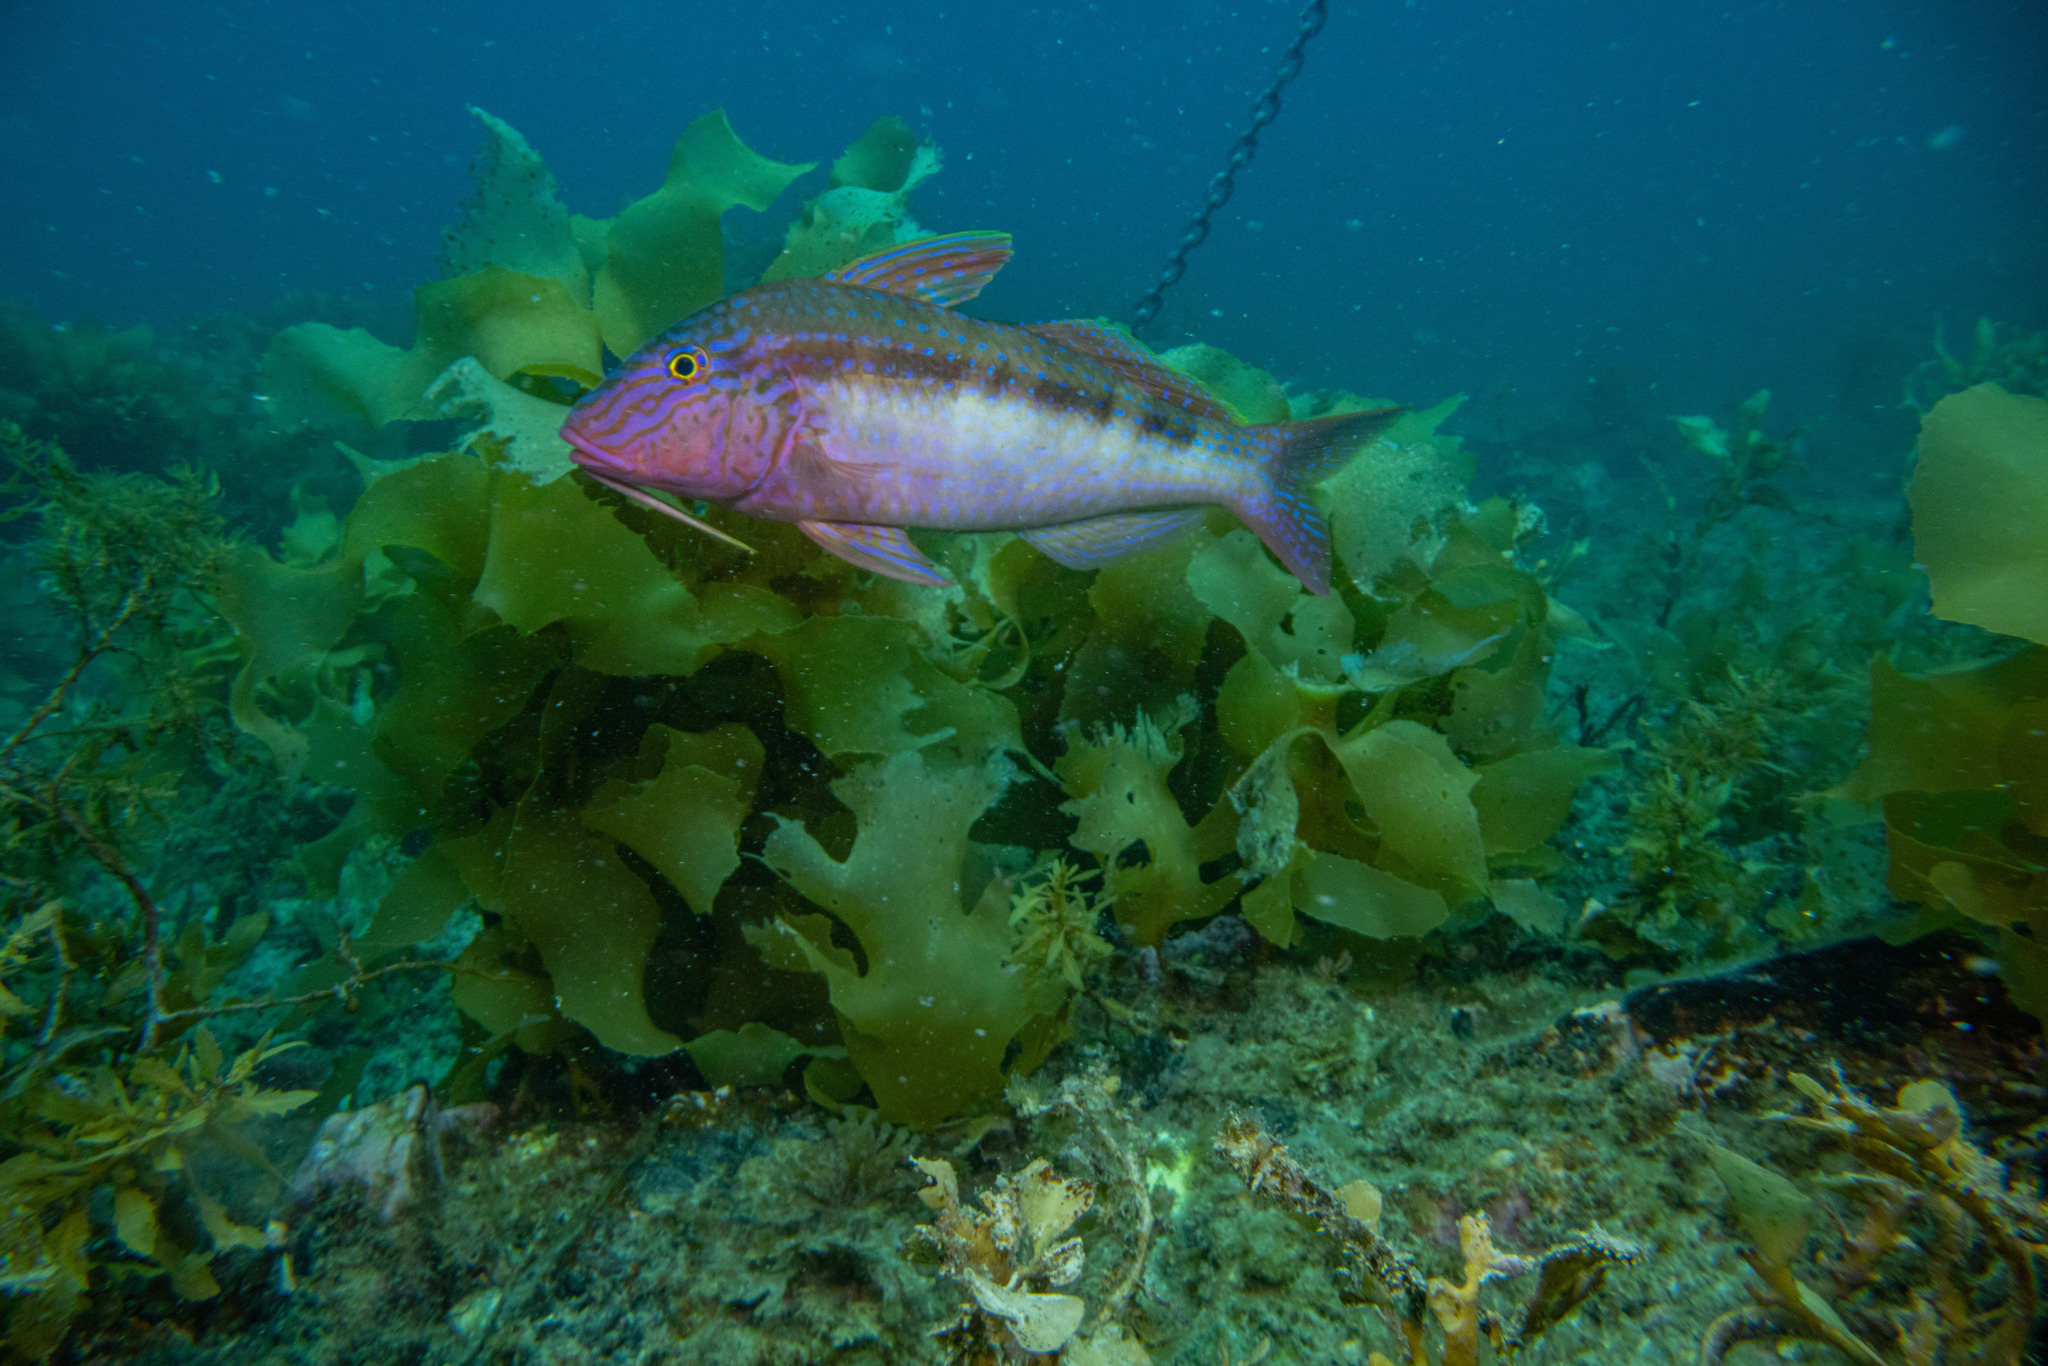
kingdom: Animalia
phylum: Chordata
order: Perciformes
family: Mullidae
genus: Upeneichthys
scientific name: Upeneichthys lineatus
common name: Red mullet
